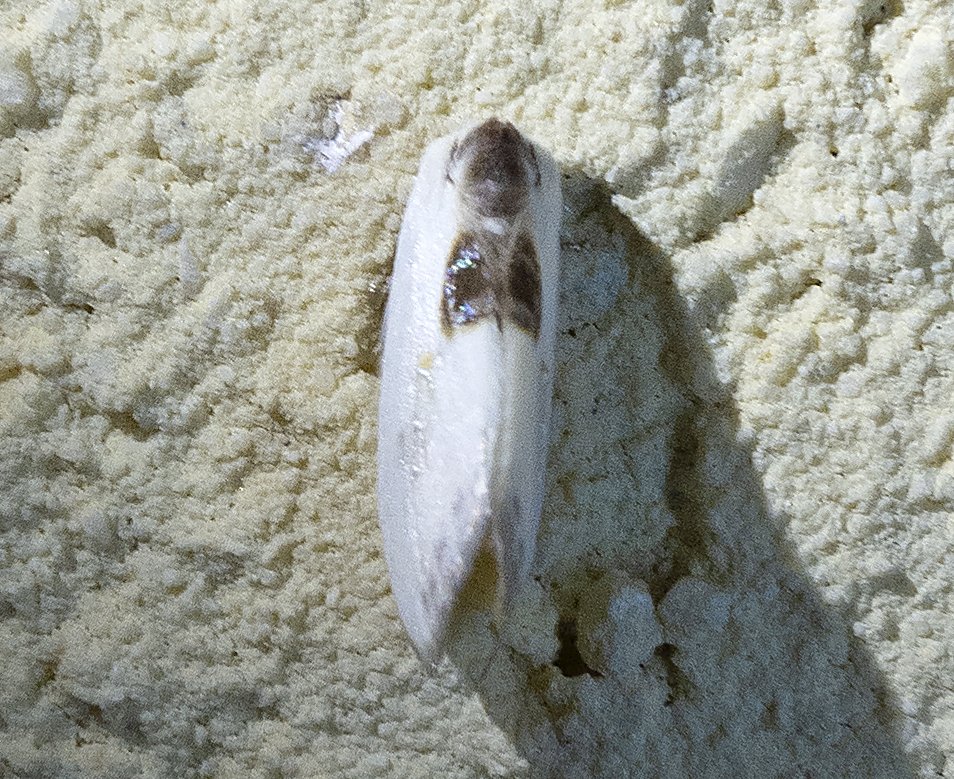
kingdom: Animalia
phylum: Arthropoda
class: Insecta
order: Lepidoptera
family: Drepanidae
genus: Cilix
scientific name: Cilix asiatica
